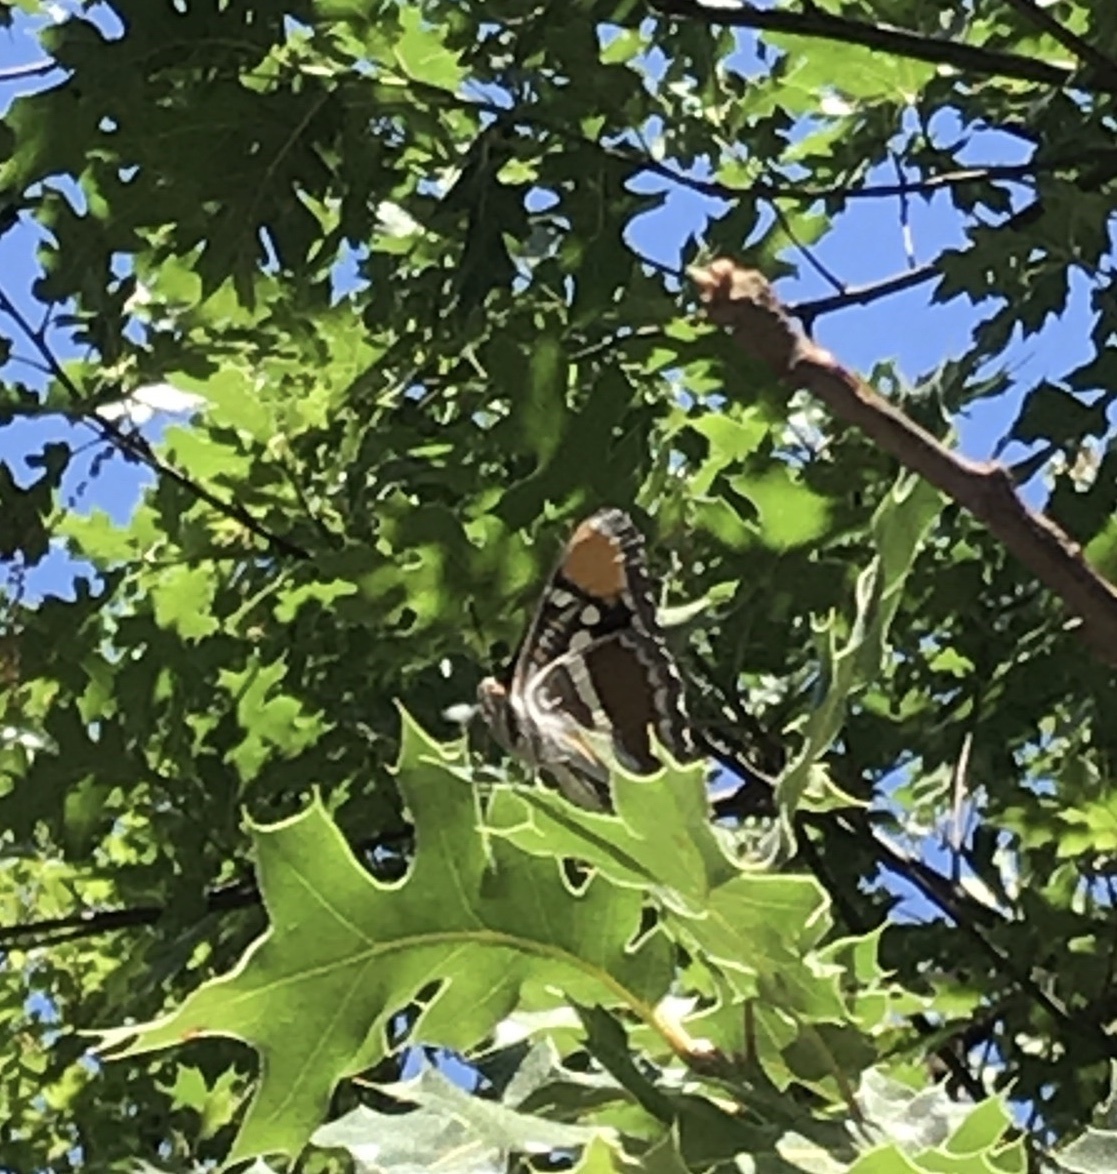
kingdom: Animalia
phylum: Arthropoda
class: Insecta
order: Lepidoptera
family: Nymphalidae
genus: Limenitis
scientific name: Limenitis bredowii
